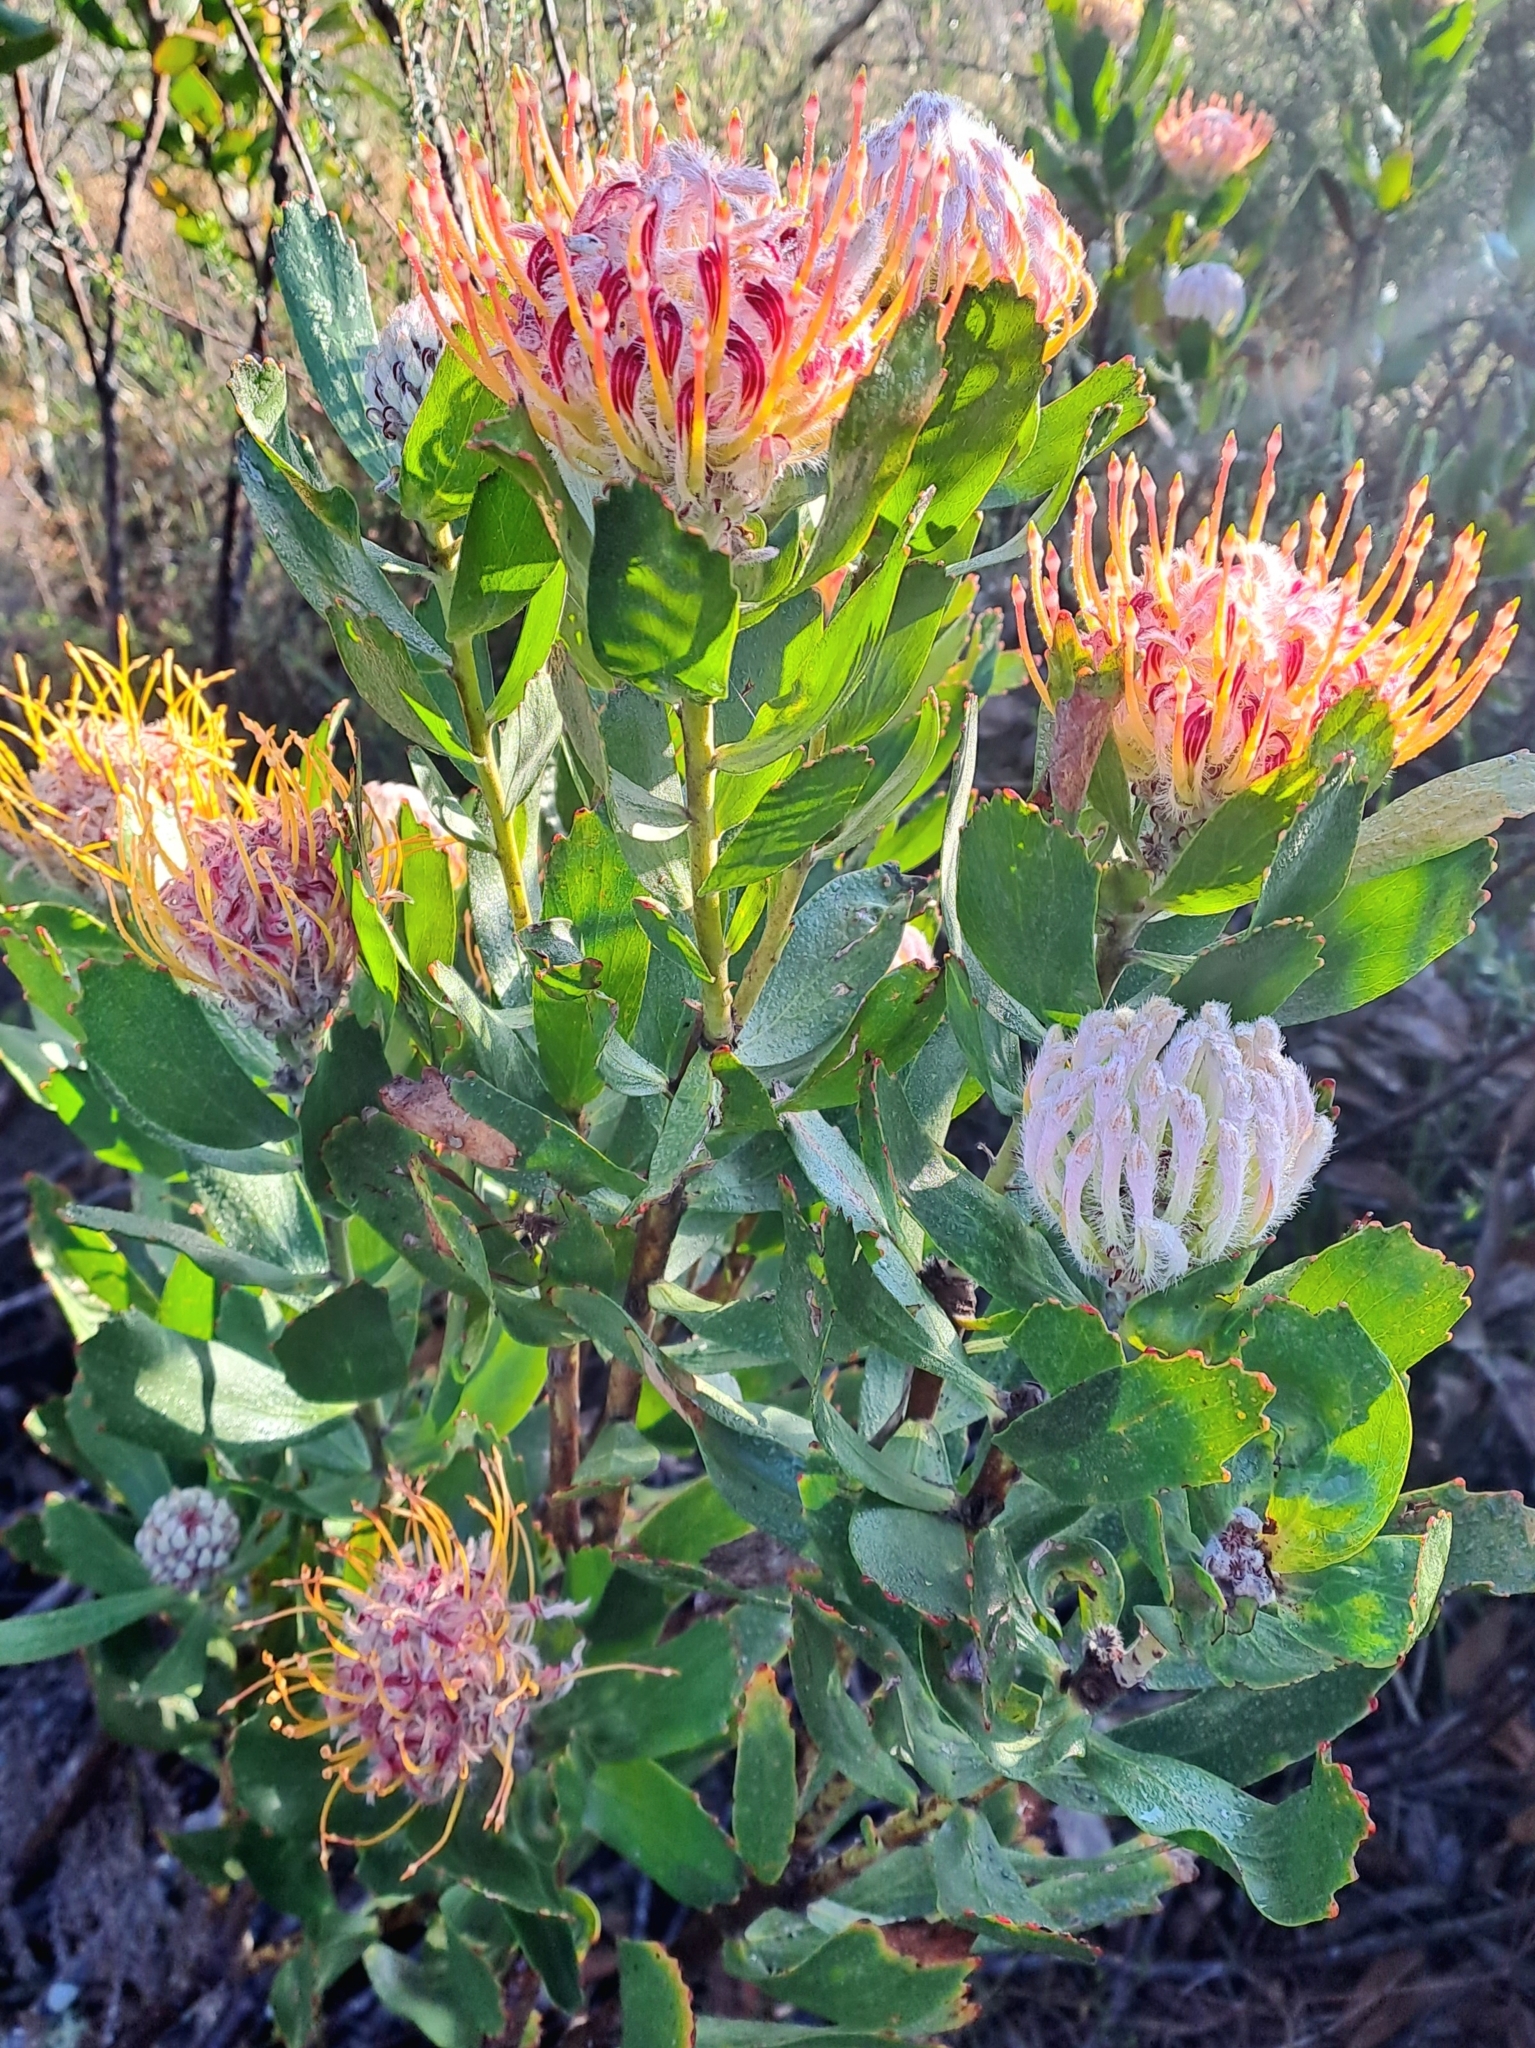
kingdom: Plantae
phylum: Tracheophyta
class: Magnoliopsida
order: Proteales
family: Proteaceae
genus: Leucospermum
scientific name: Leucospermum glabrum
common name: Outeniqua pincushion
